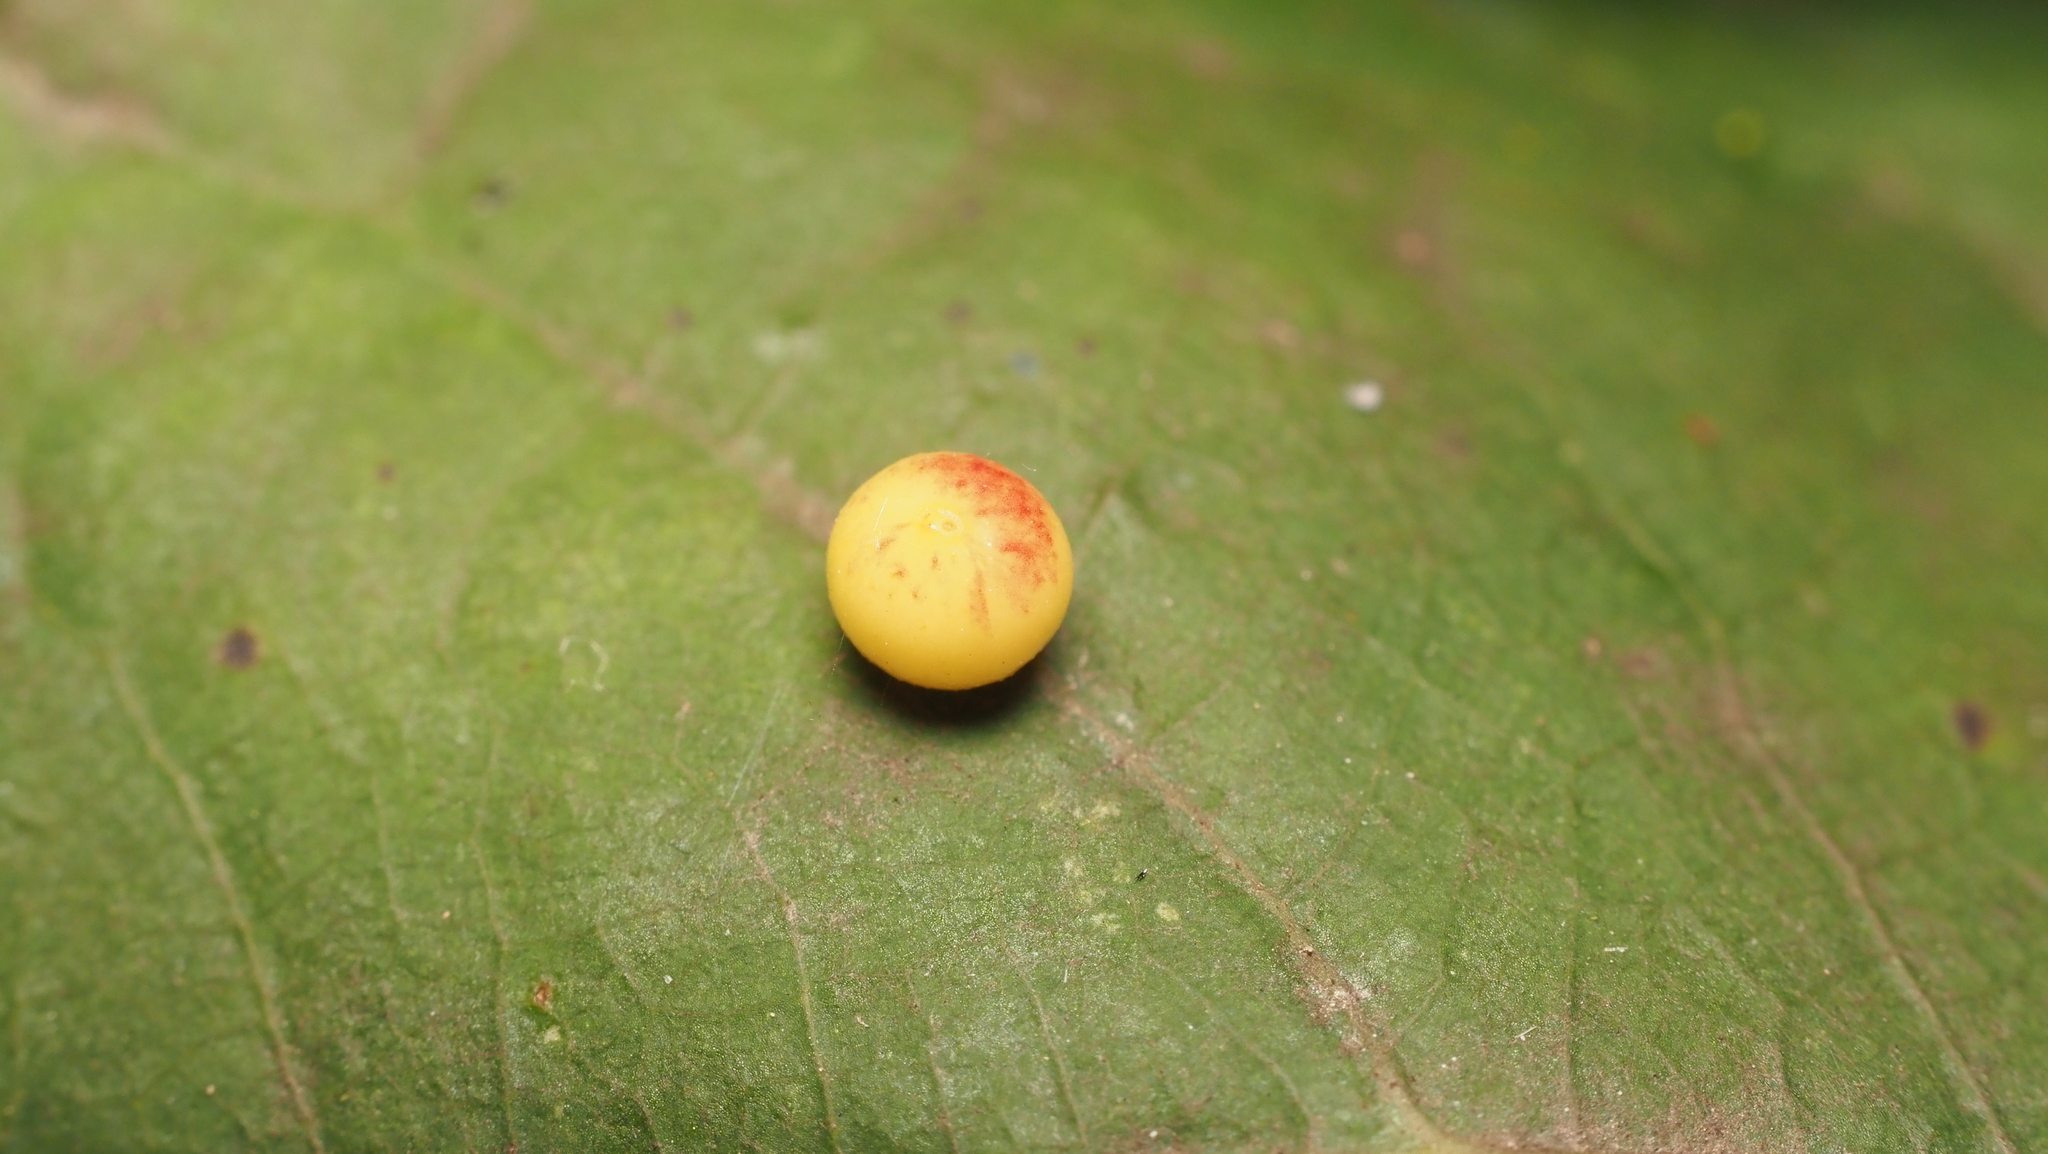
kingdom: Animalia
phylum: Arthropoda
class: Insecta
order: Hymenoptera
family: Cynipidae
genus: Zopheroteras
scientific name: Zopheroteras
